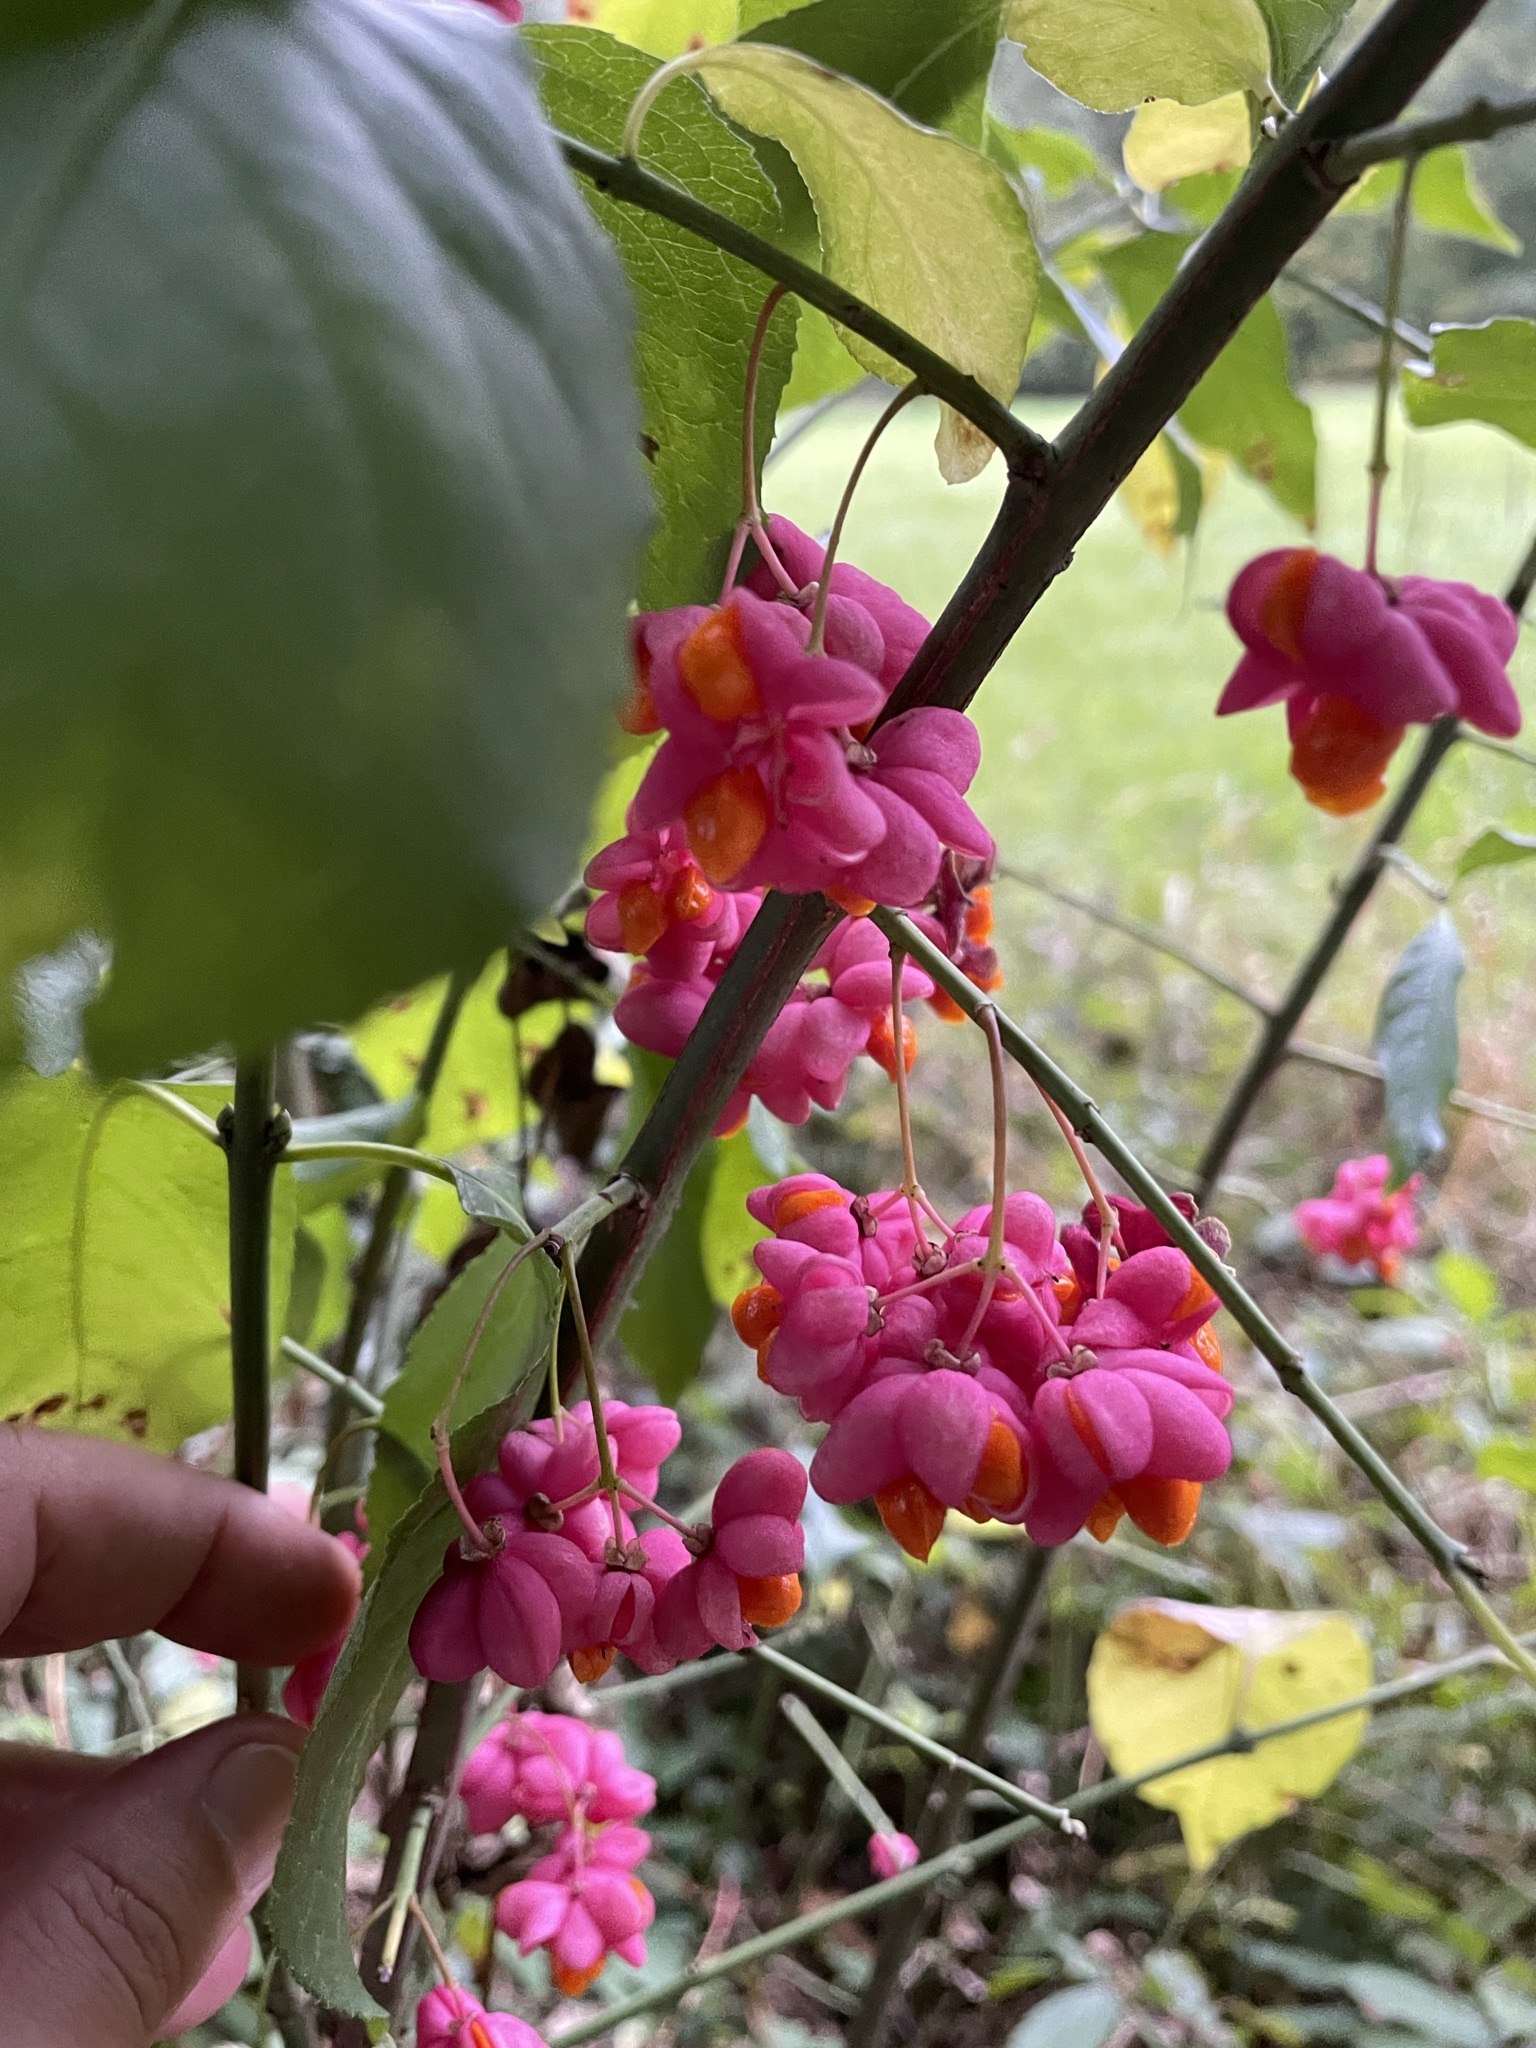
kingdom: Plantae
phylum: Tracheophyta
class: Magnoliopsida
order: Celastrales
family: Celastraceae
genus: Euonymus
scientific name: Euonymus europaeus
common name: Spindle
